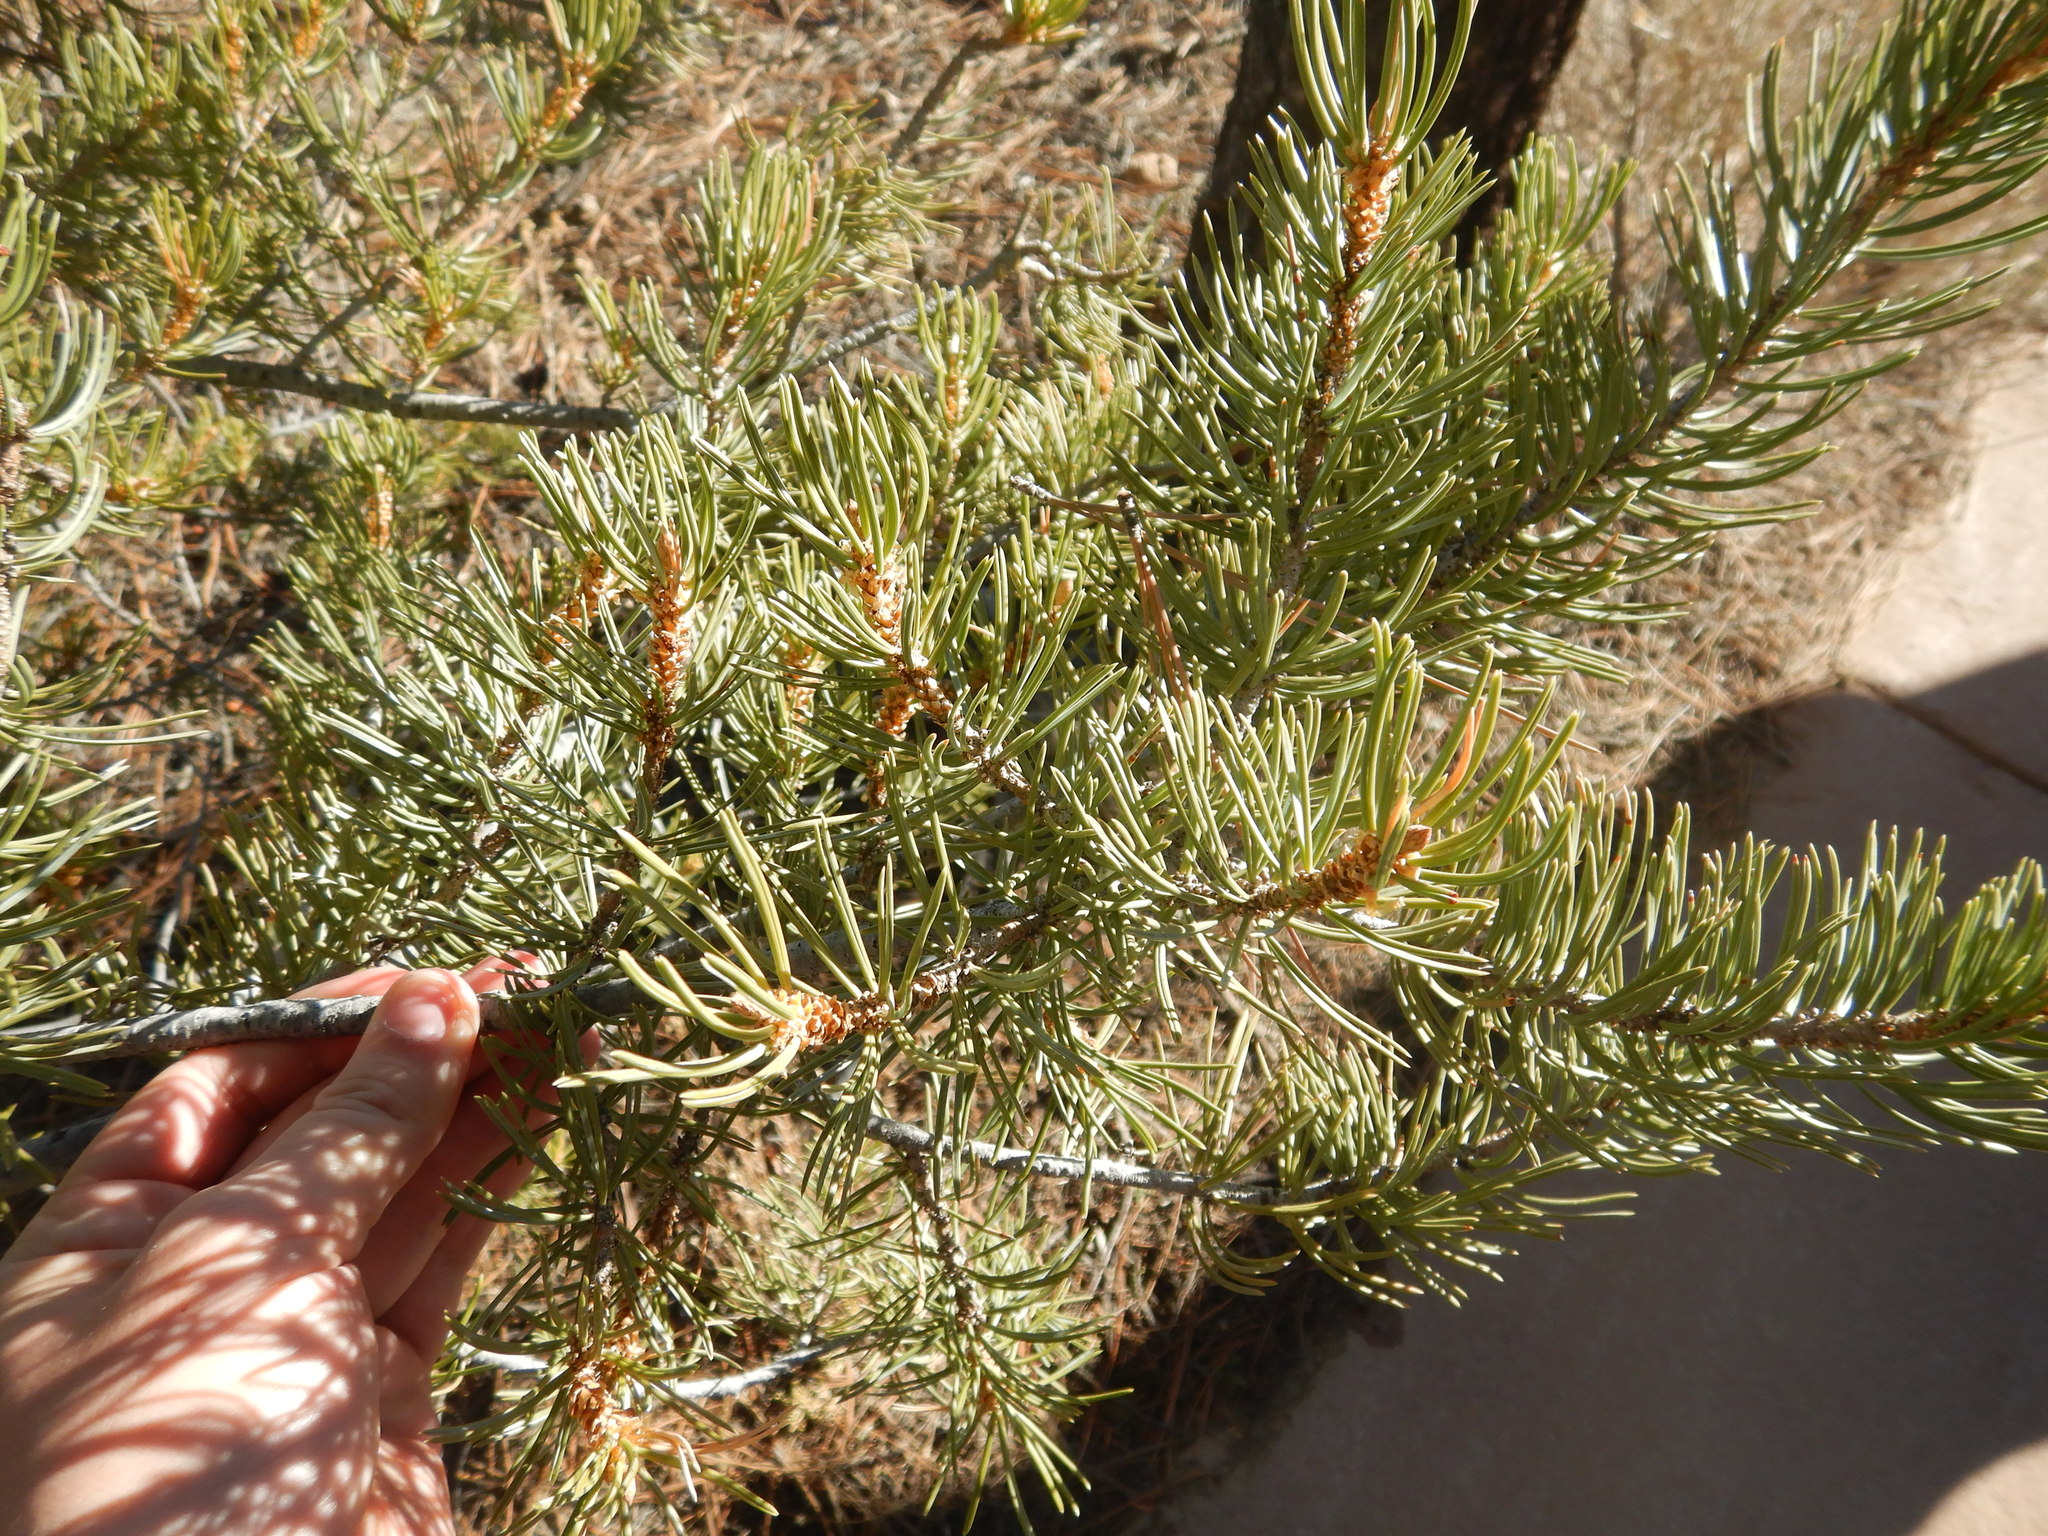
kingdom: Plantae
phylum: Tracheophyta
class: Pinopsida
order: Pinales
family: Pinaceae
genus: Pinus
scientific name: Pinus edulis
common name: Colorado pinyon
